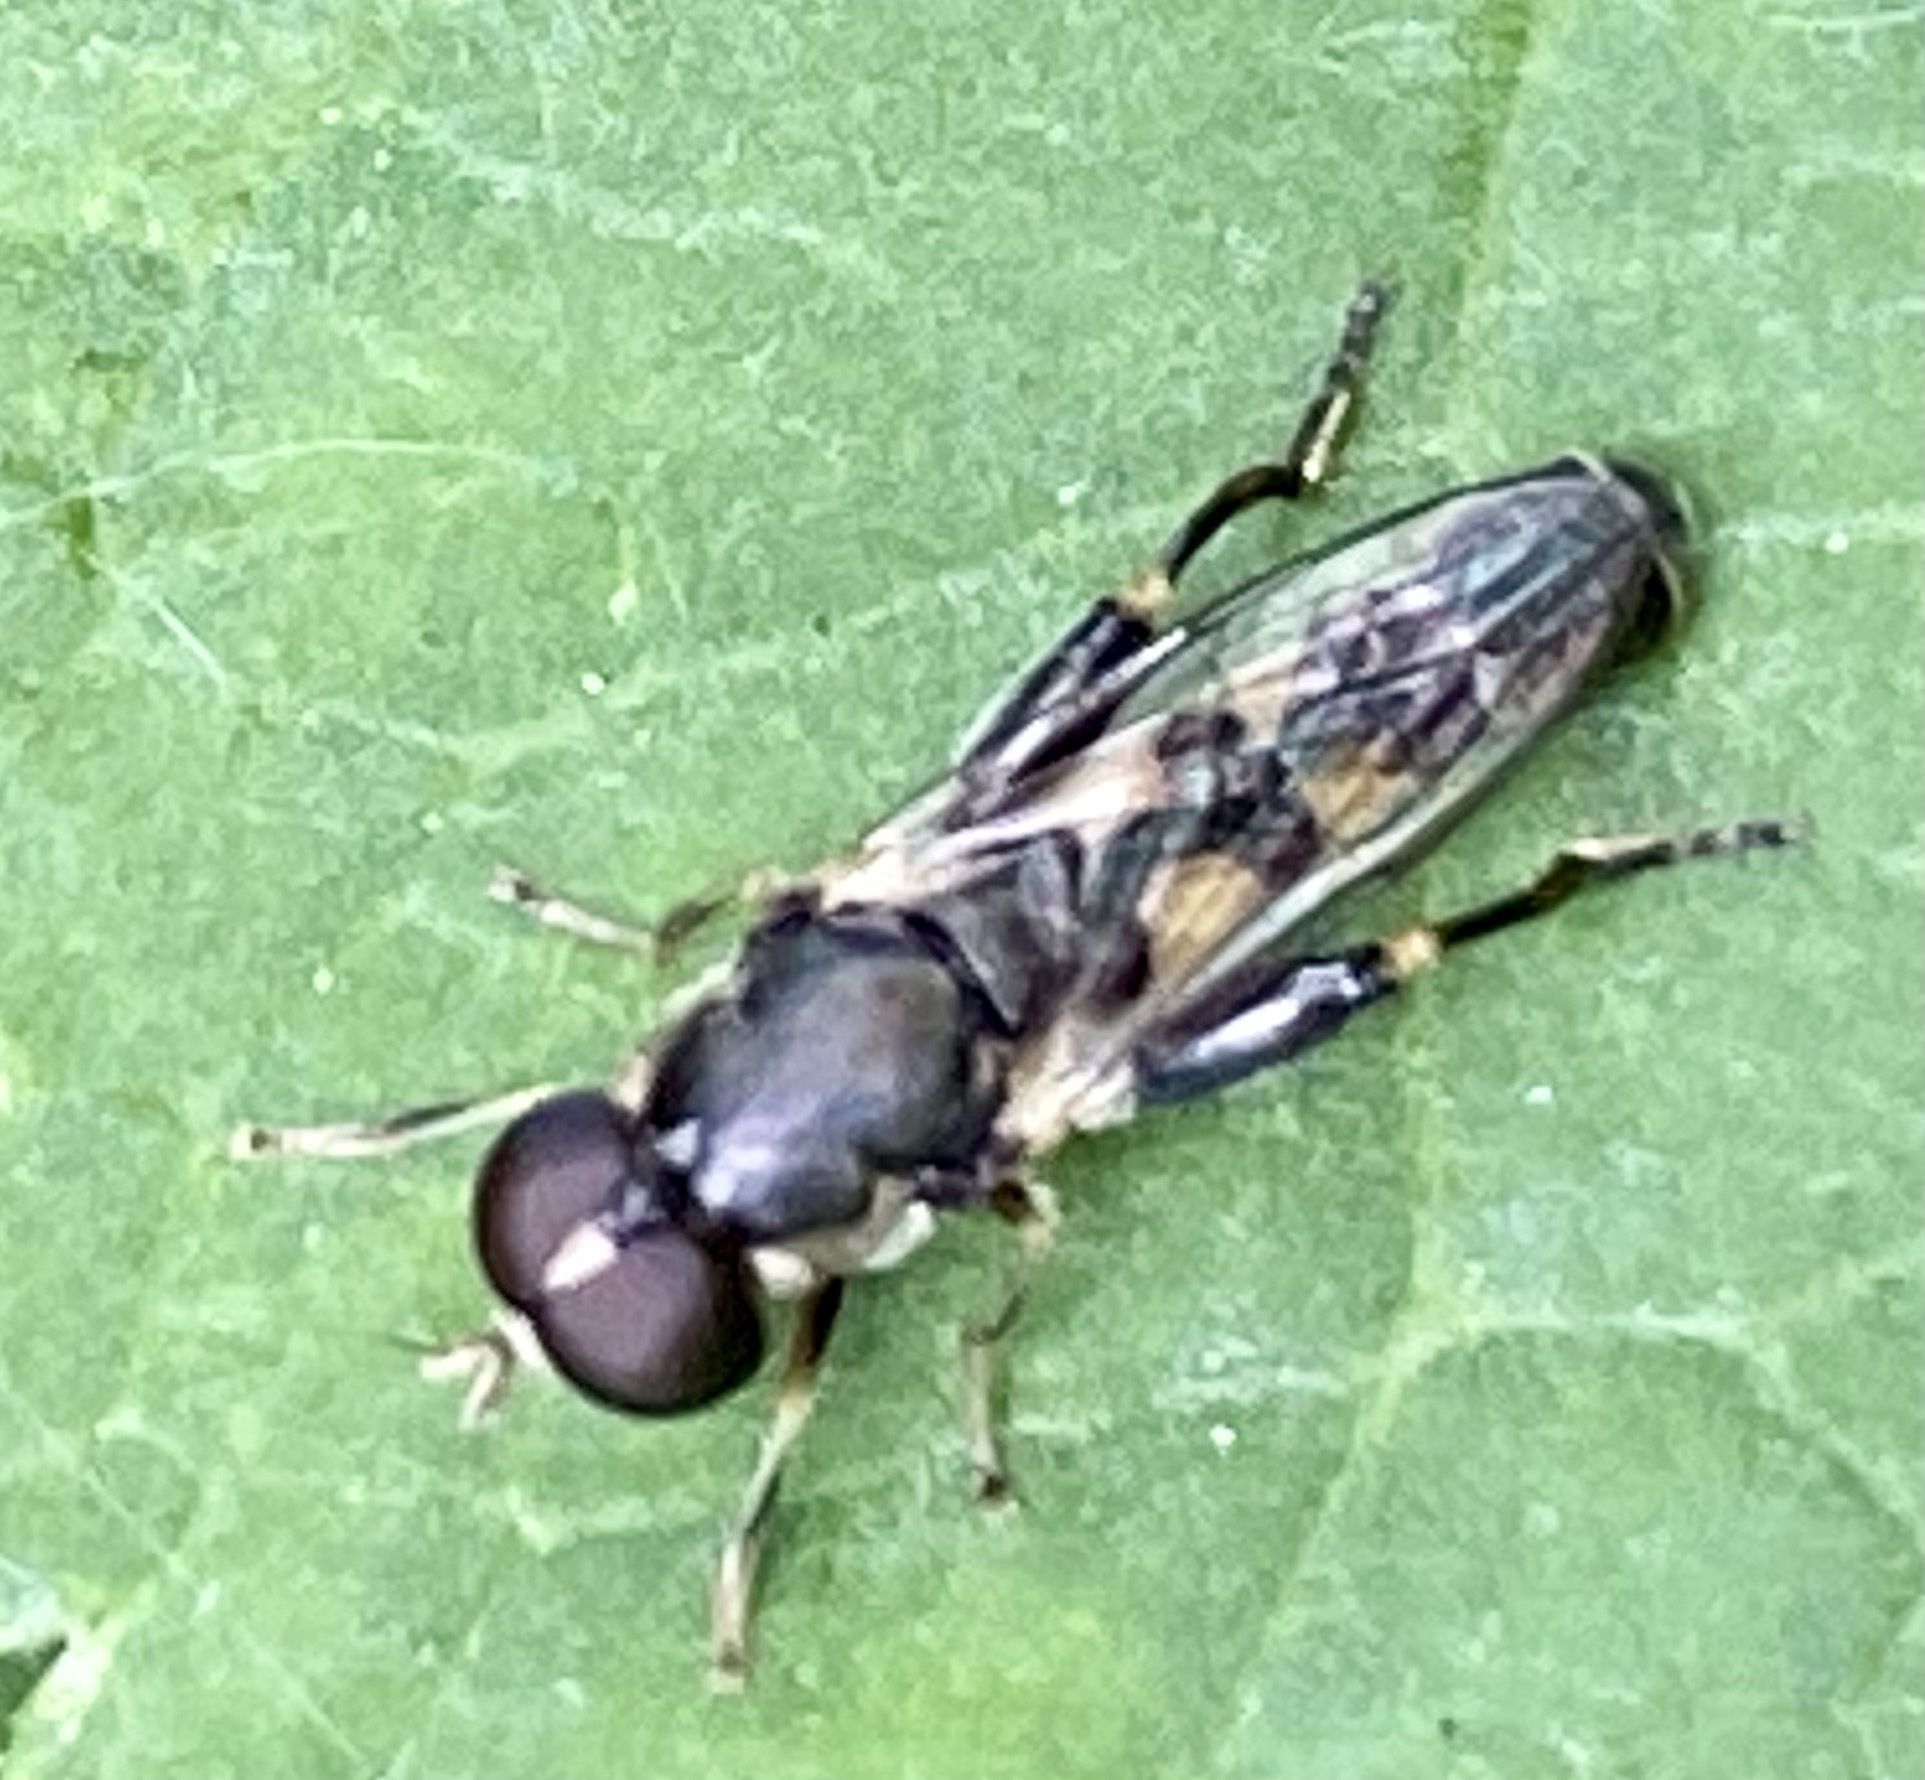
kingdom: Animalia
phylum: Arthropoda
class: Insecta
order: Diptera
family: Syrphidae
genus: Syritta
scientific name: Syritta pipiens
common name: Hover fly
